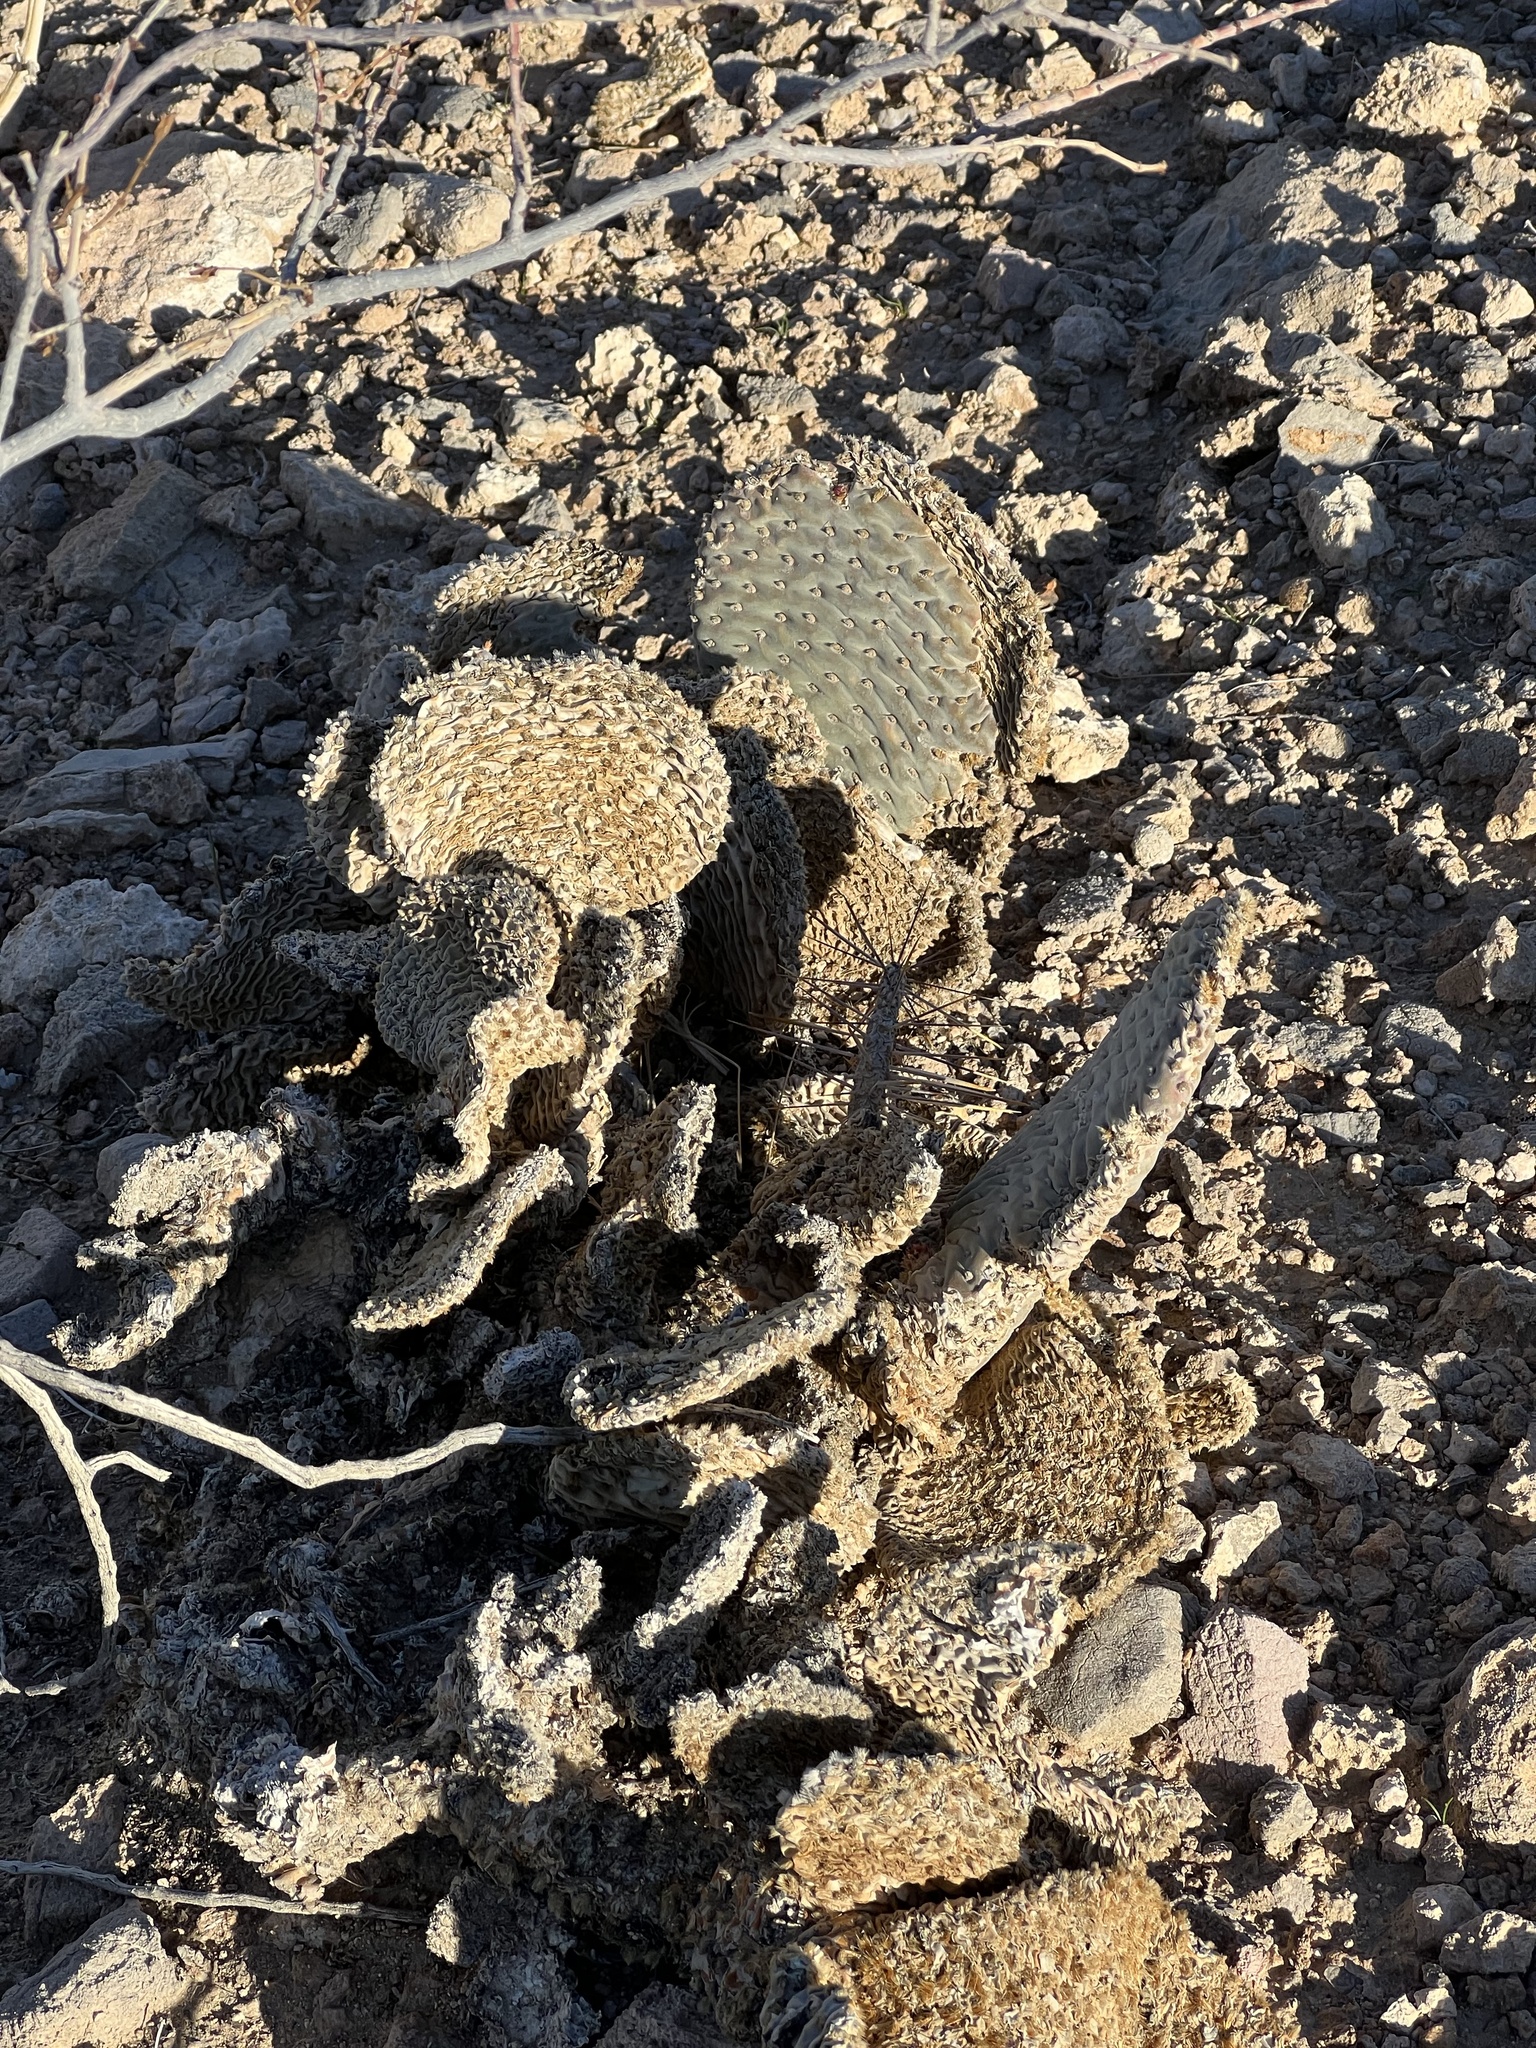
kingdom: Plantae
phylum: Tracheophyta
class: Magnoliopsida
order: Caryophyllales
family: Cactaceae
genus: Opuntia
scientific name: Opuntia basilaris
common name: Beavertail prickly-pear
